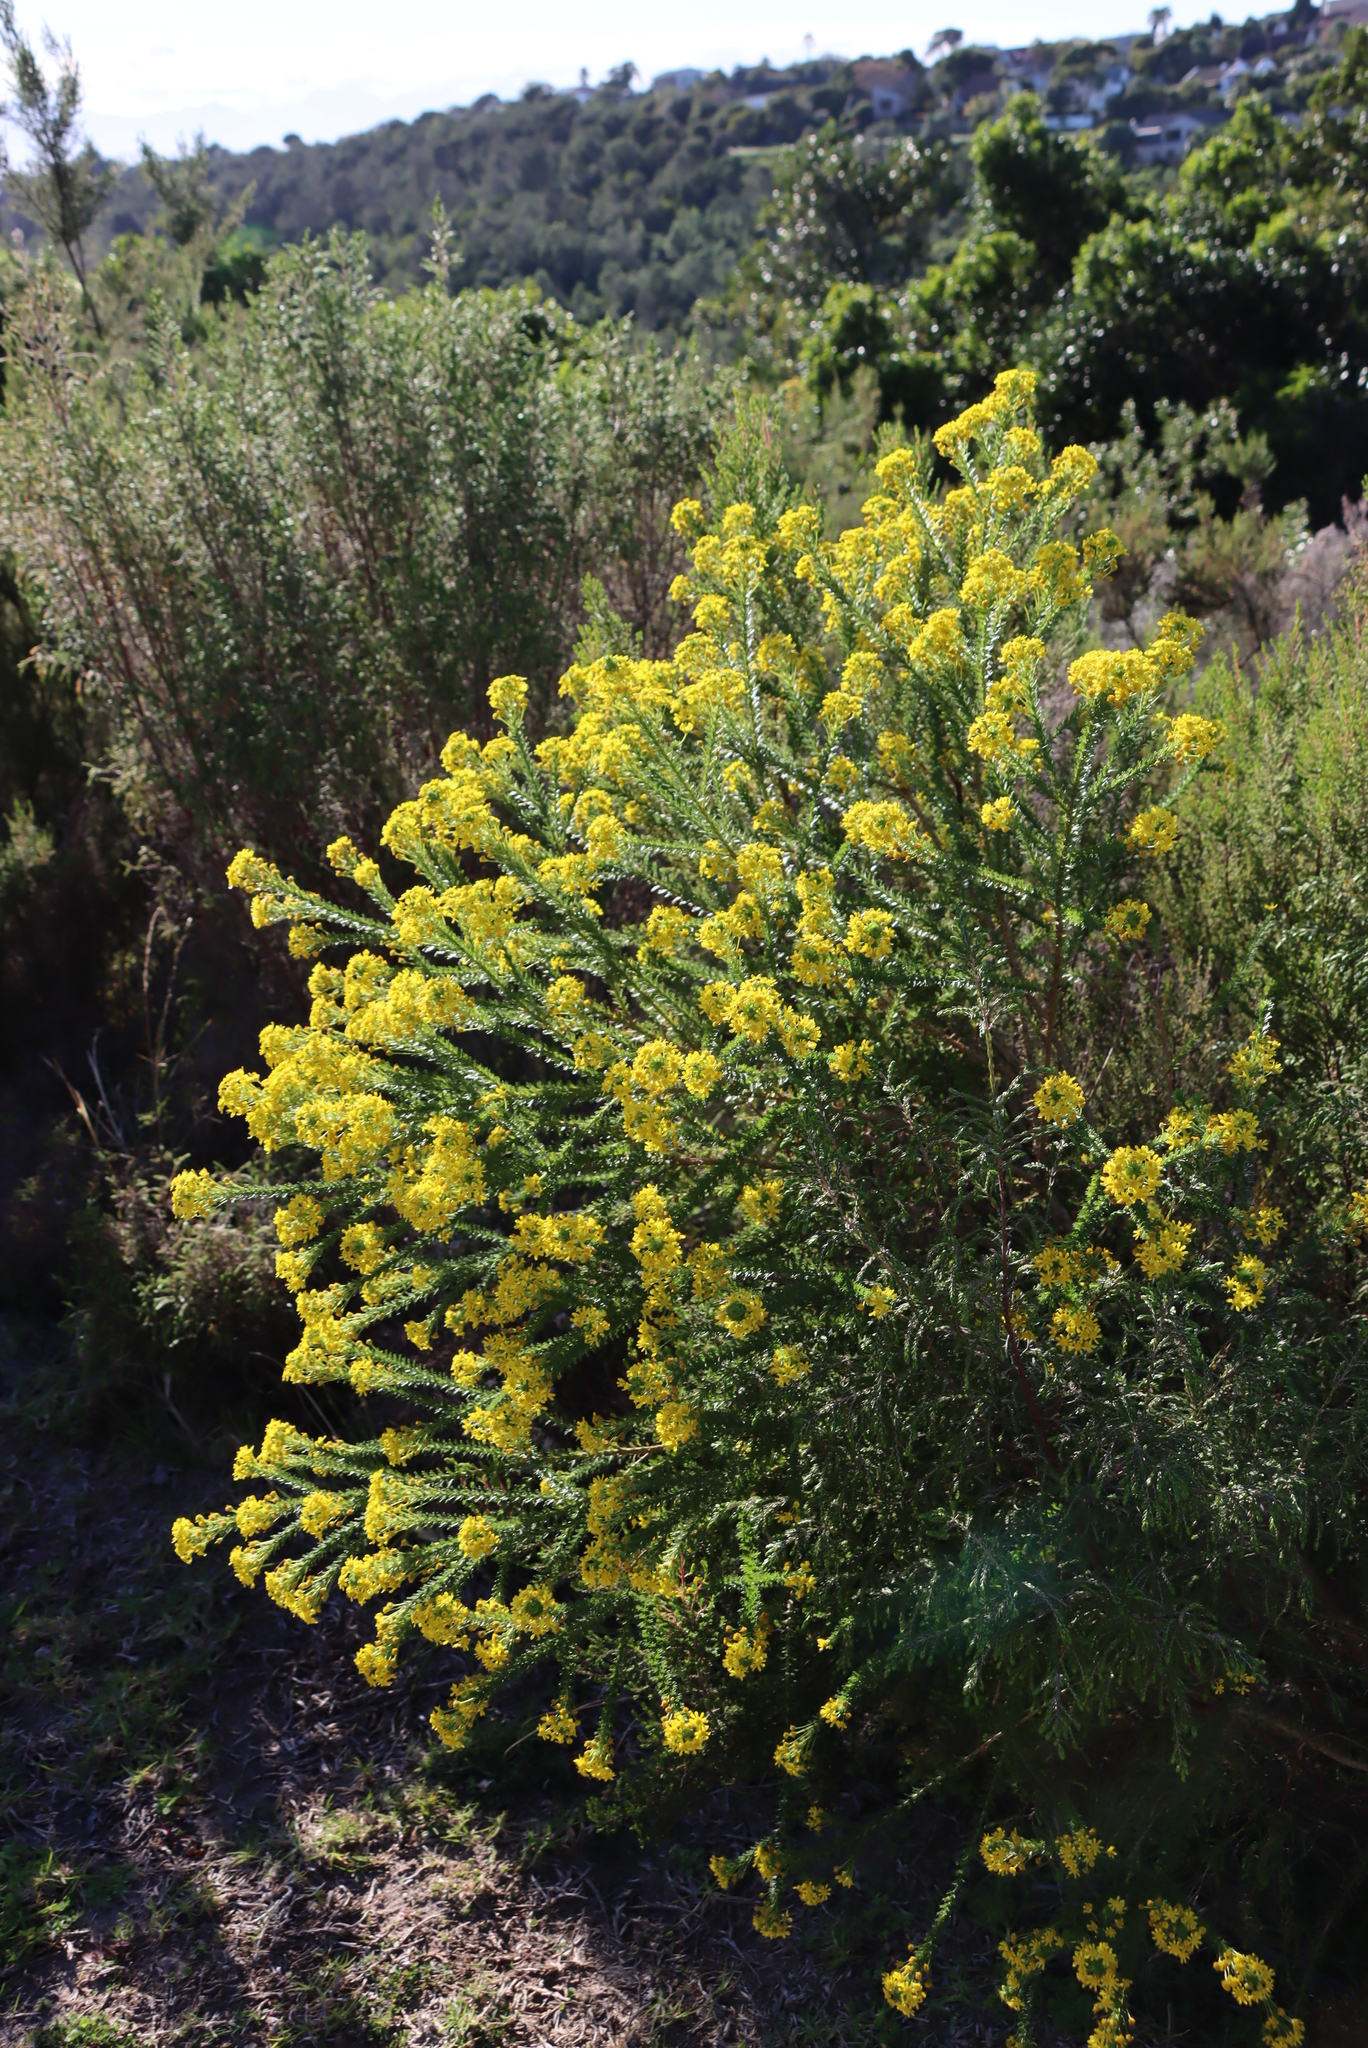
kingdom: Plantae
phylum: Tracheophyta
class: Magnoliopsida
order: Asterales
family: Asteraceae
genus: Euryops
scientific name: Euryops virgineus
